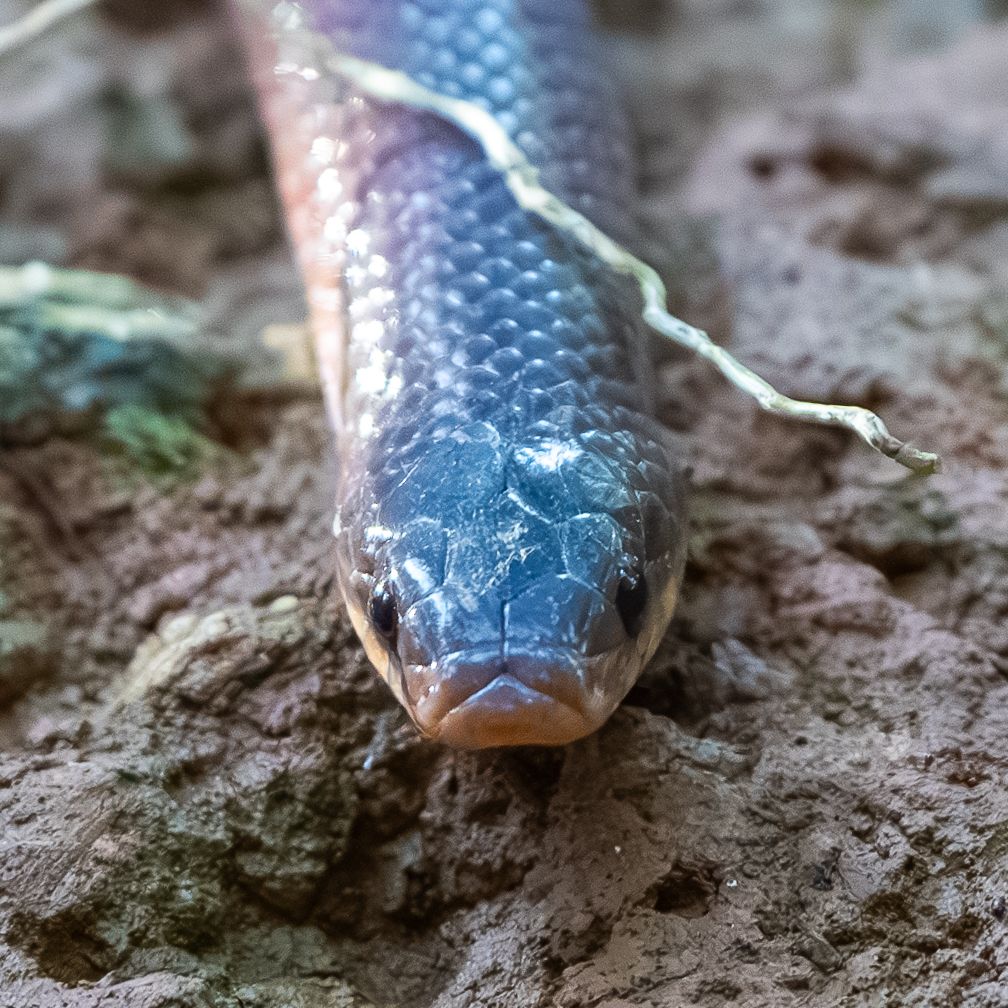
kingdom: Animalia
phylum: Chordata
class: Squamata
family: Colubridae
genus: Stenorrhina
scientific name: Stenorrhina degenhardtii
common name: Degenhardt's scorpion-eating snake
